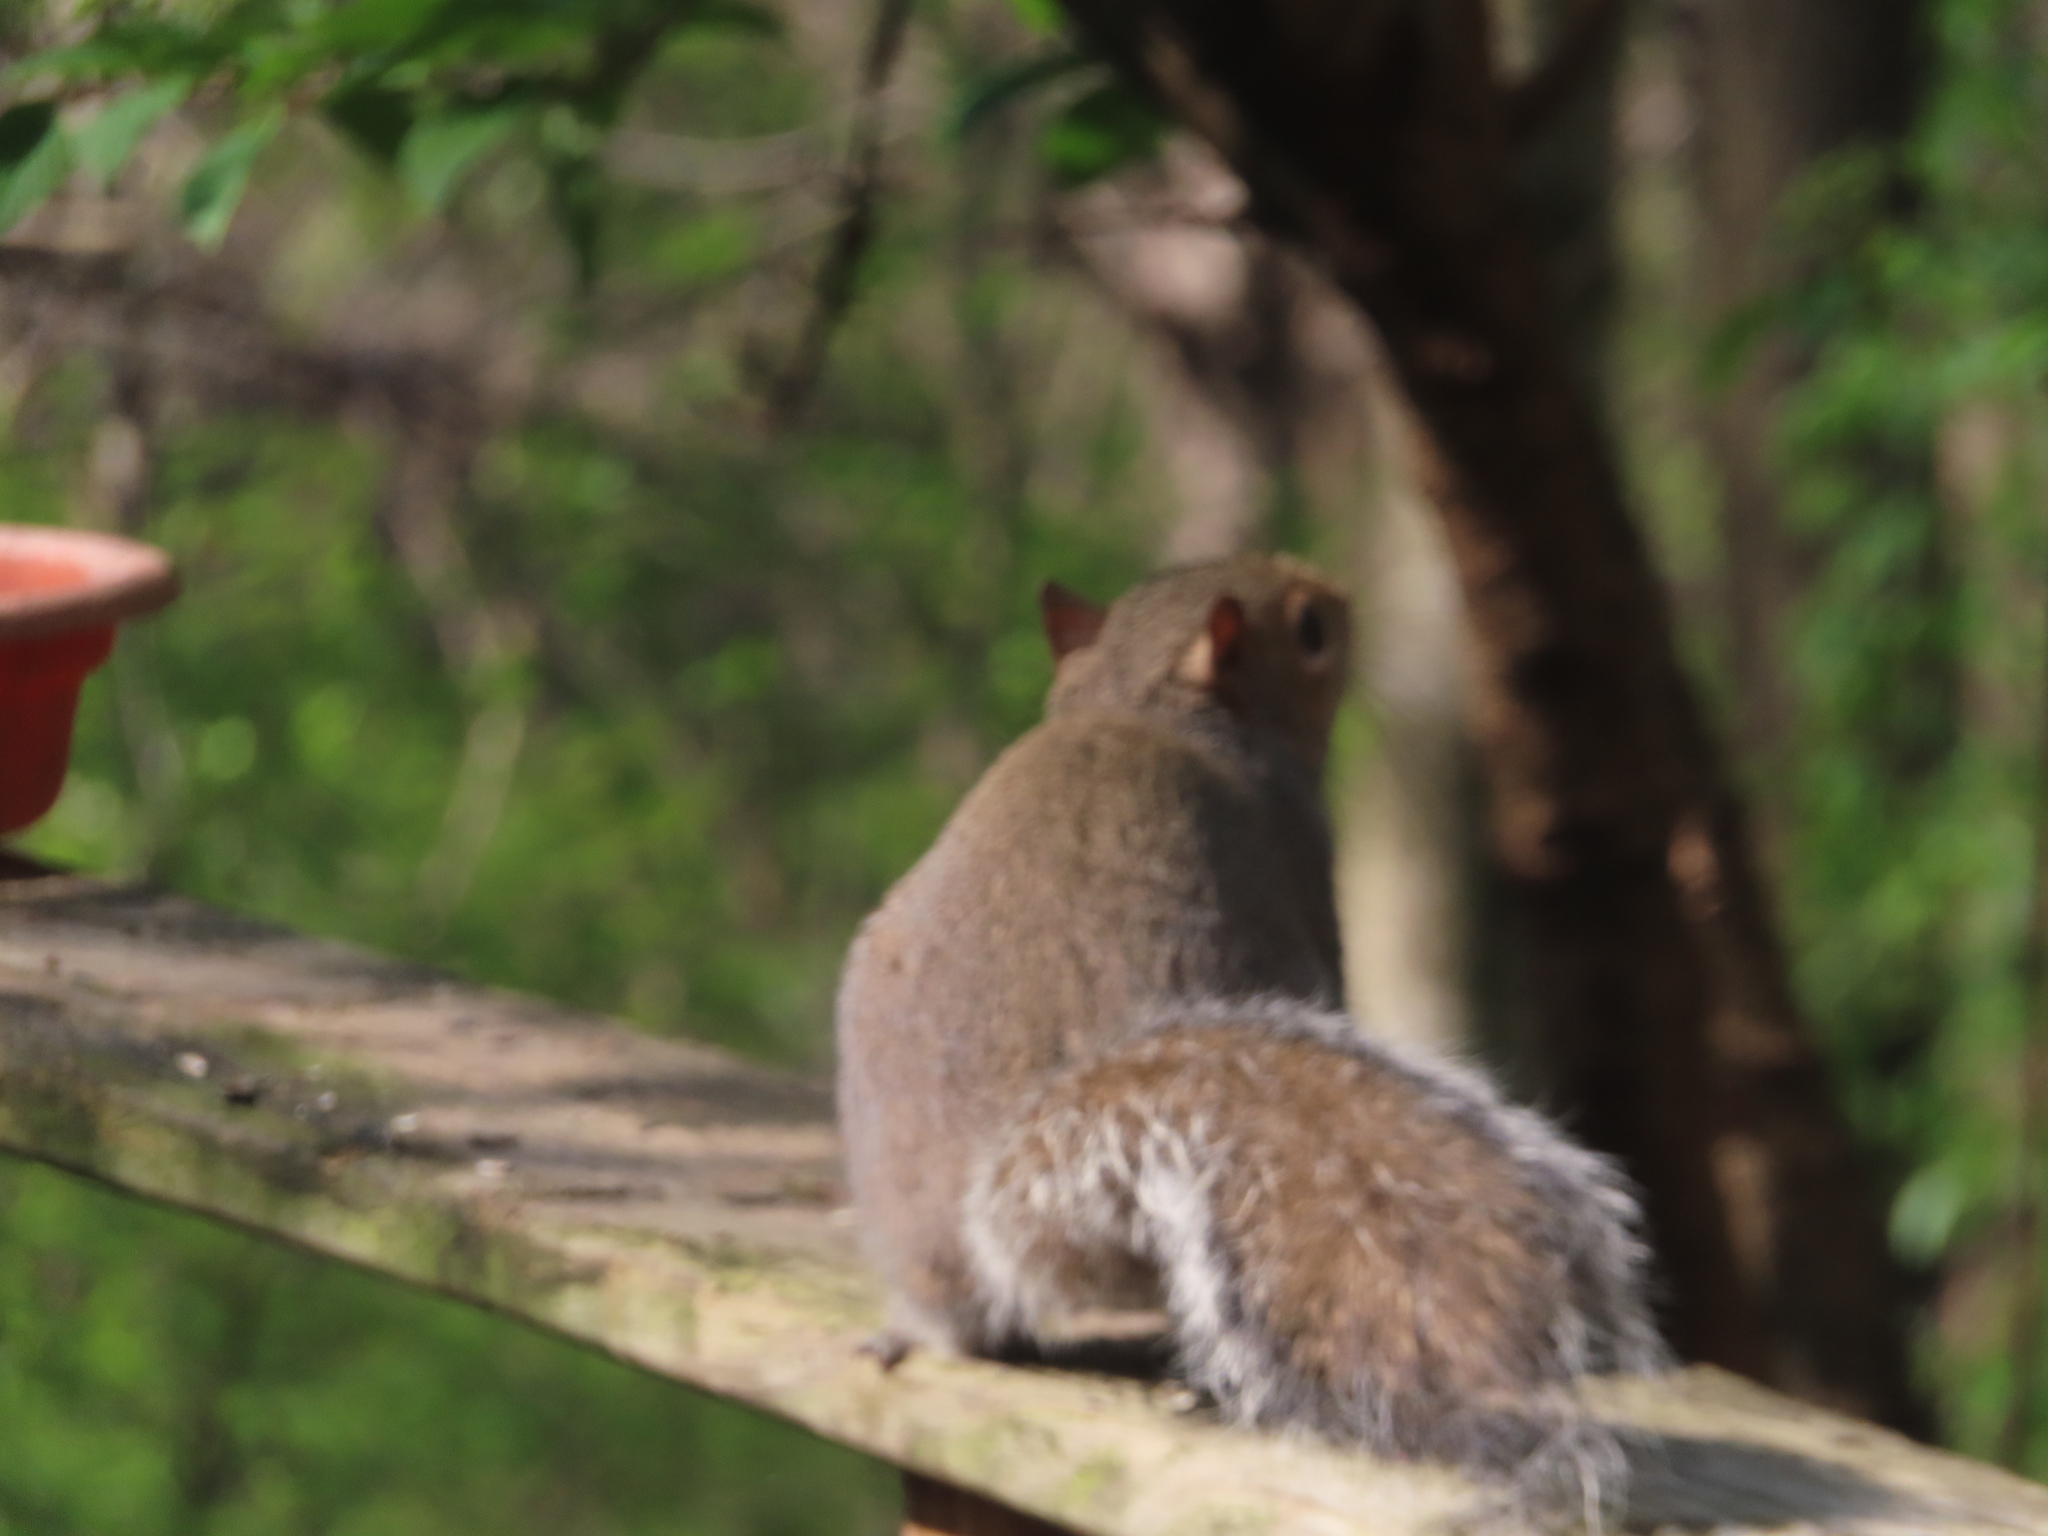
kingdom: Animalia
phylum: Chordata
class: Mammalia
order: Rodentia
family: Sciuridae
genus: Sciurus
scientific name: Sciurus carolinensis
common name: Eastern gray squirrel
